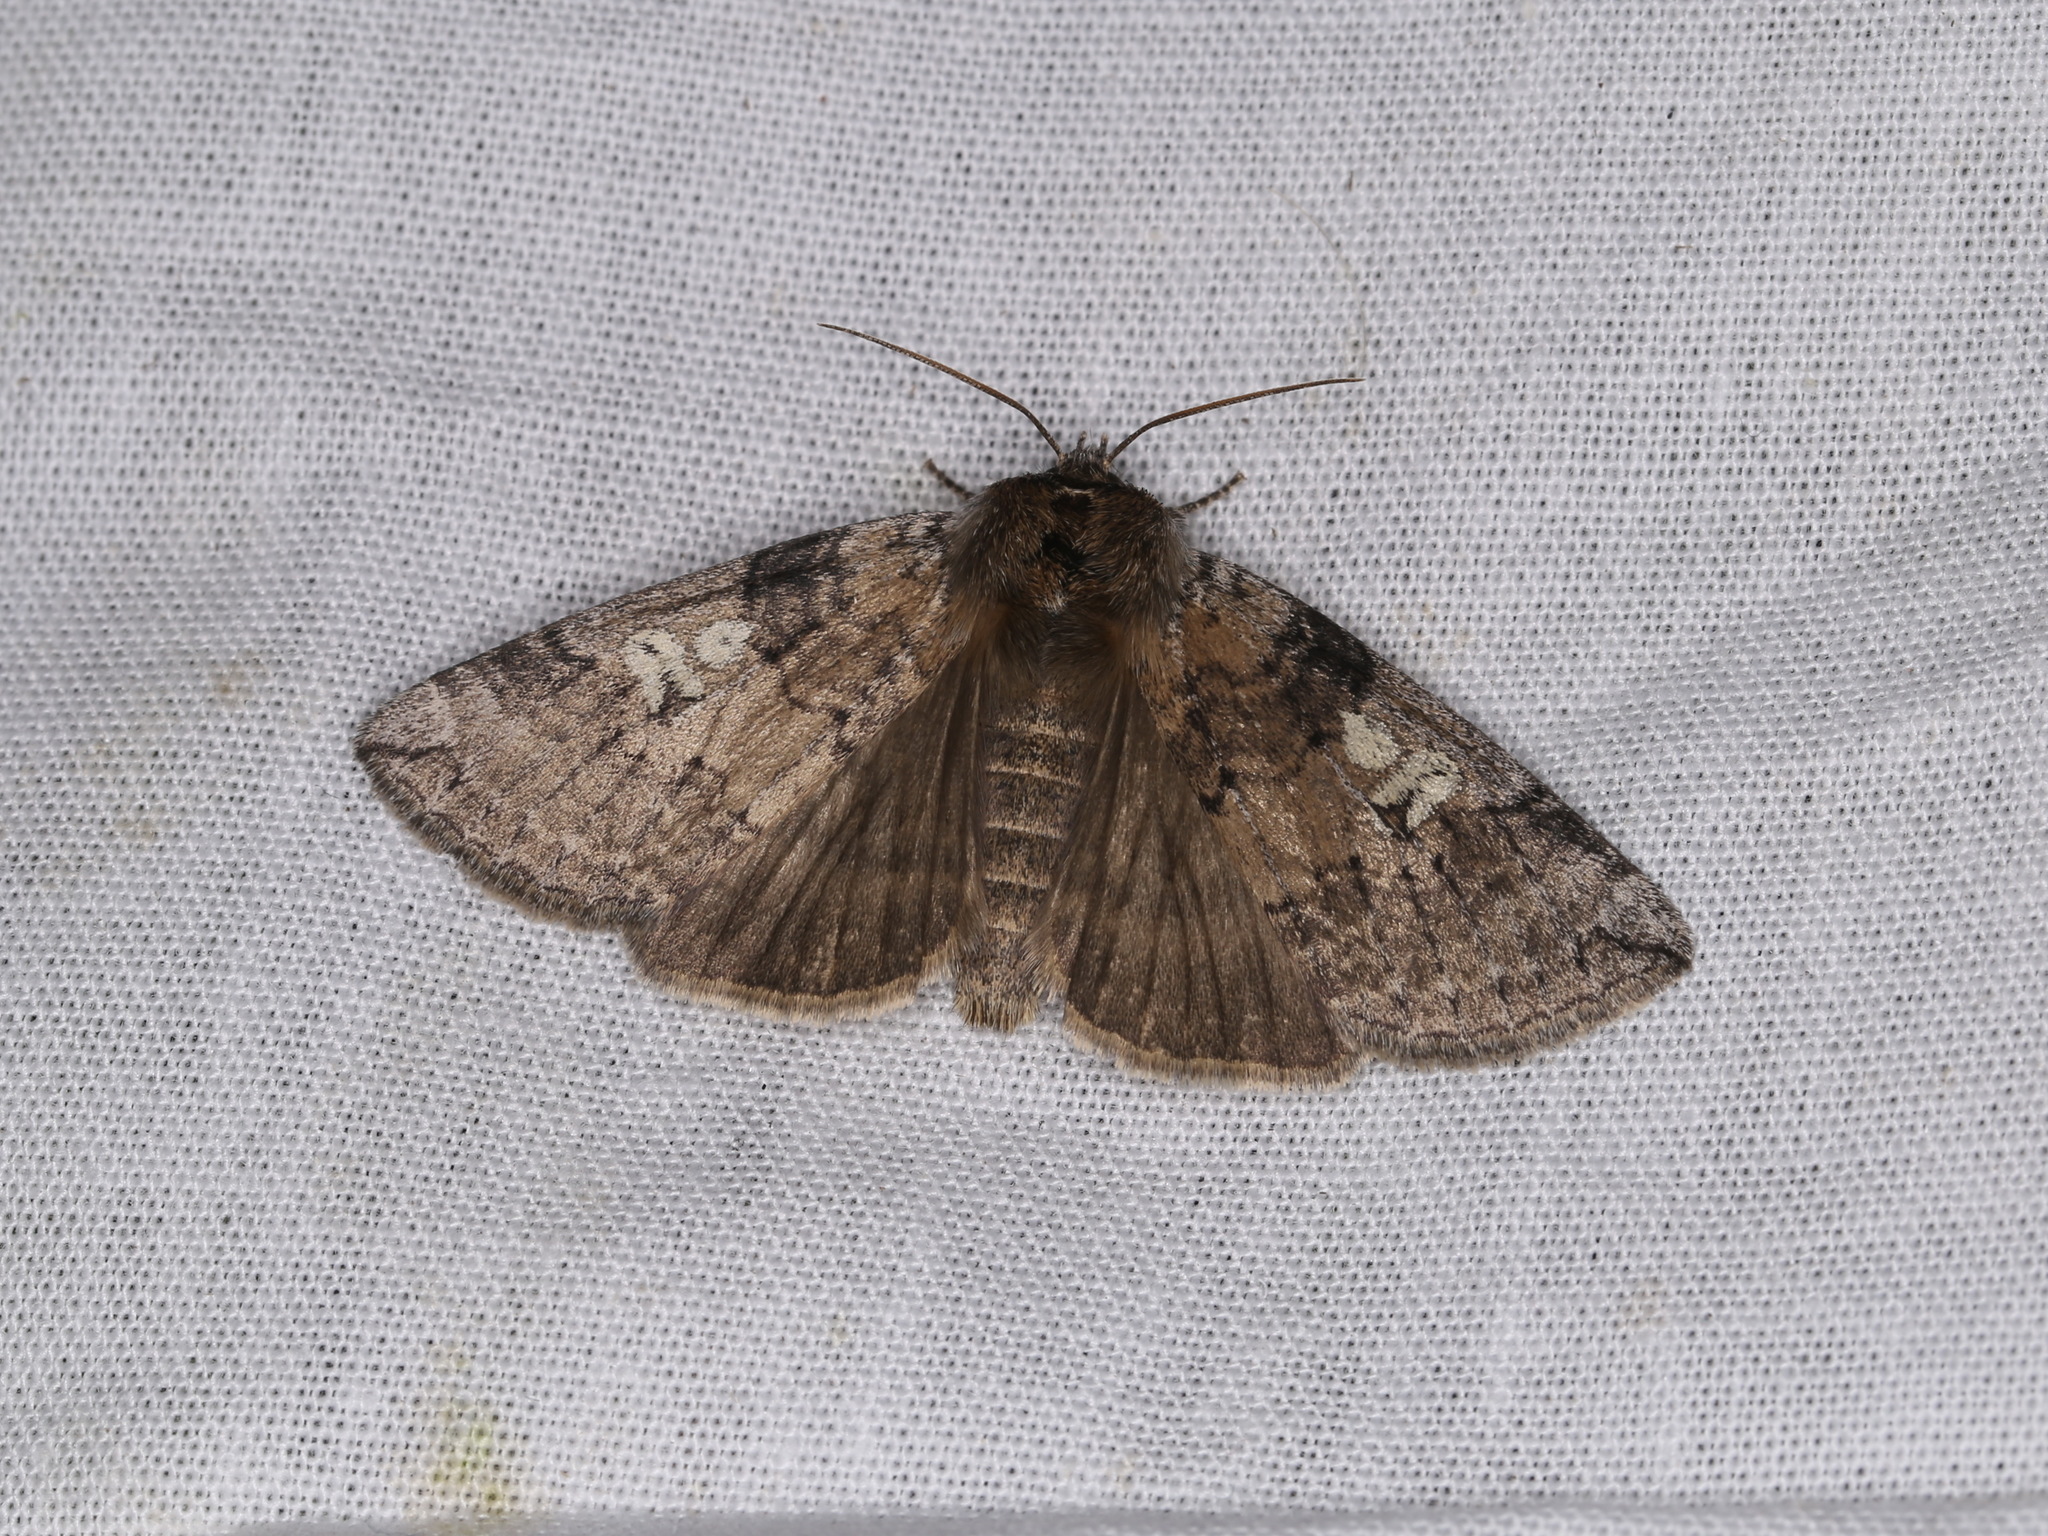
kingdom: Animalia
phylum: Arthropoda
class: Insecta
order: Lepidoptera
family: Drepanidae
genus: Tethea
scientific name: Tethea or
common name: Poplar lutestring
